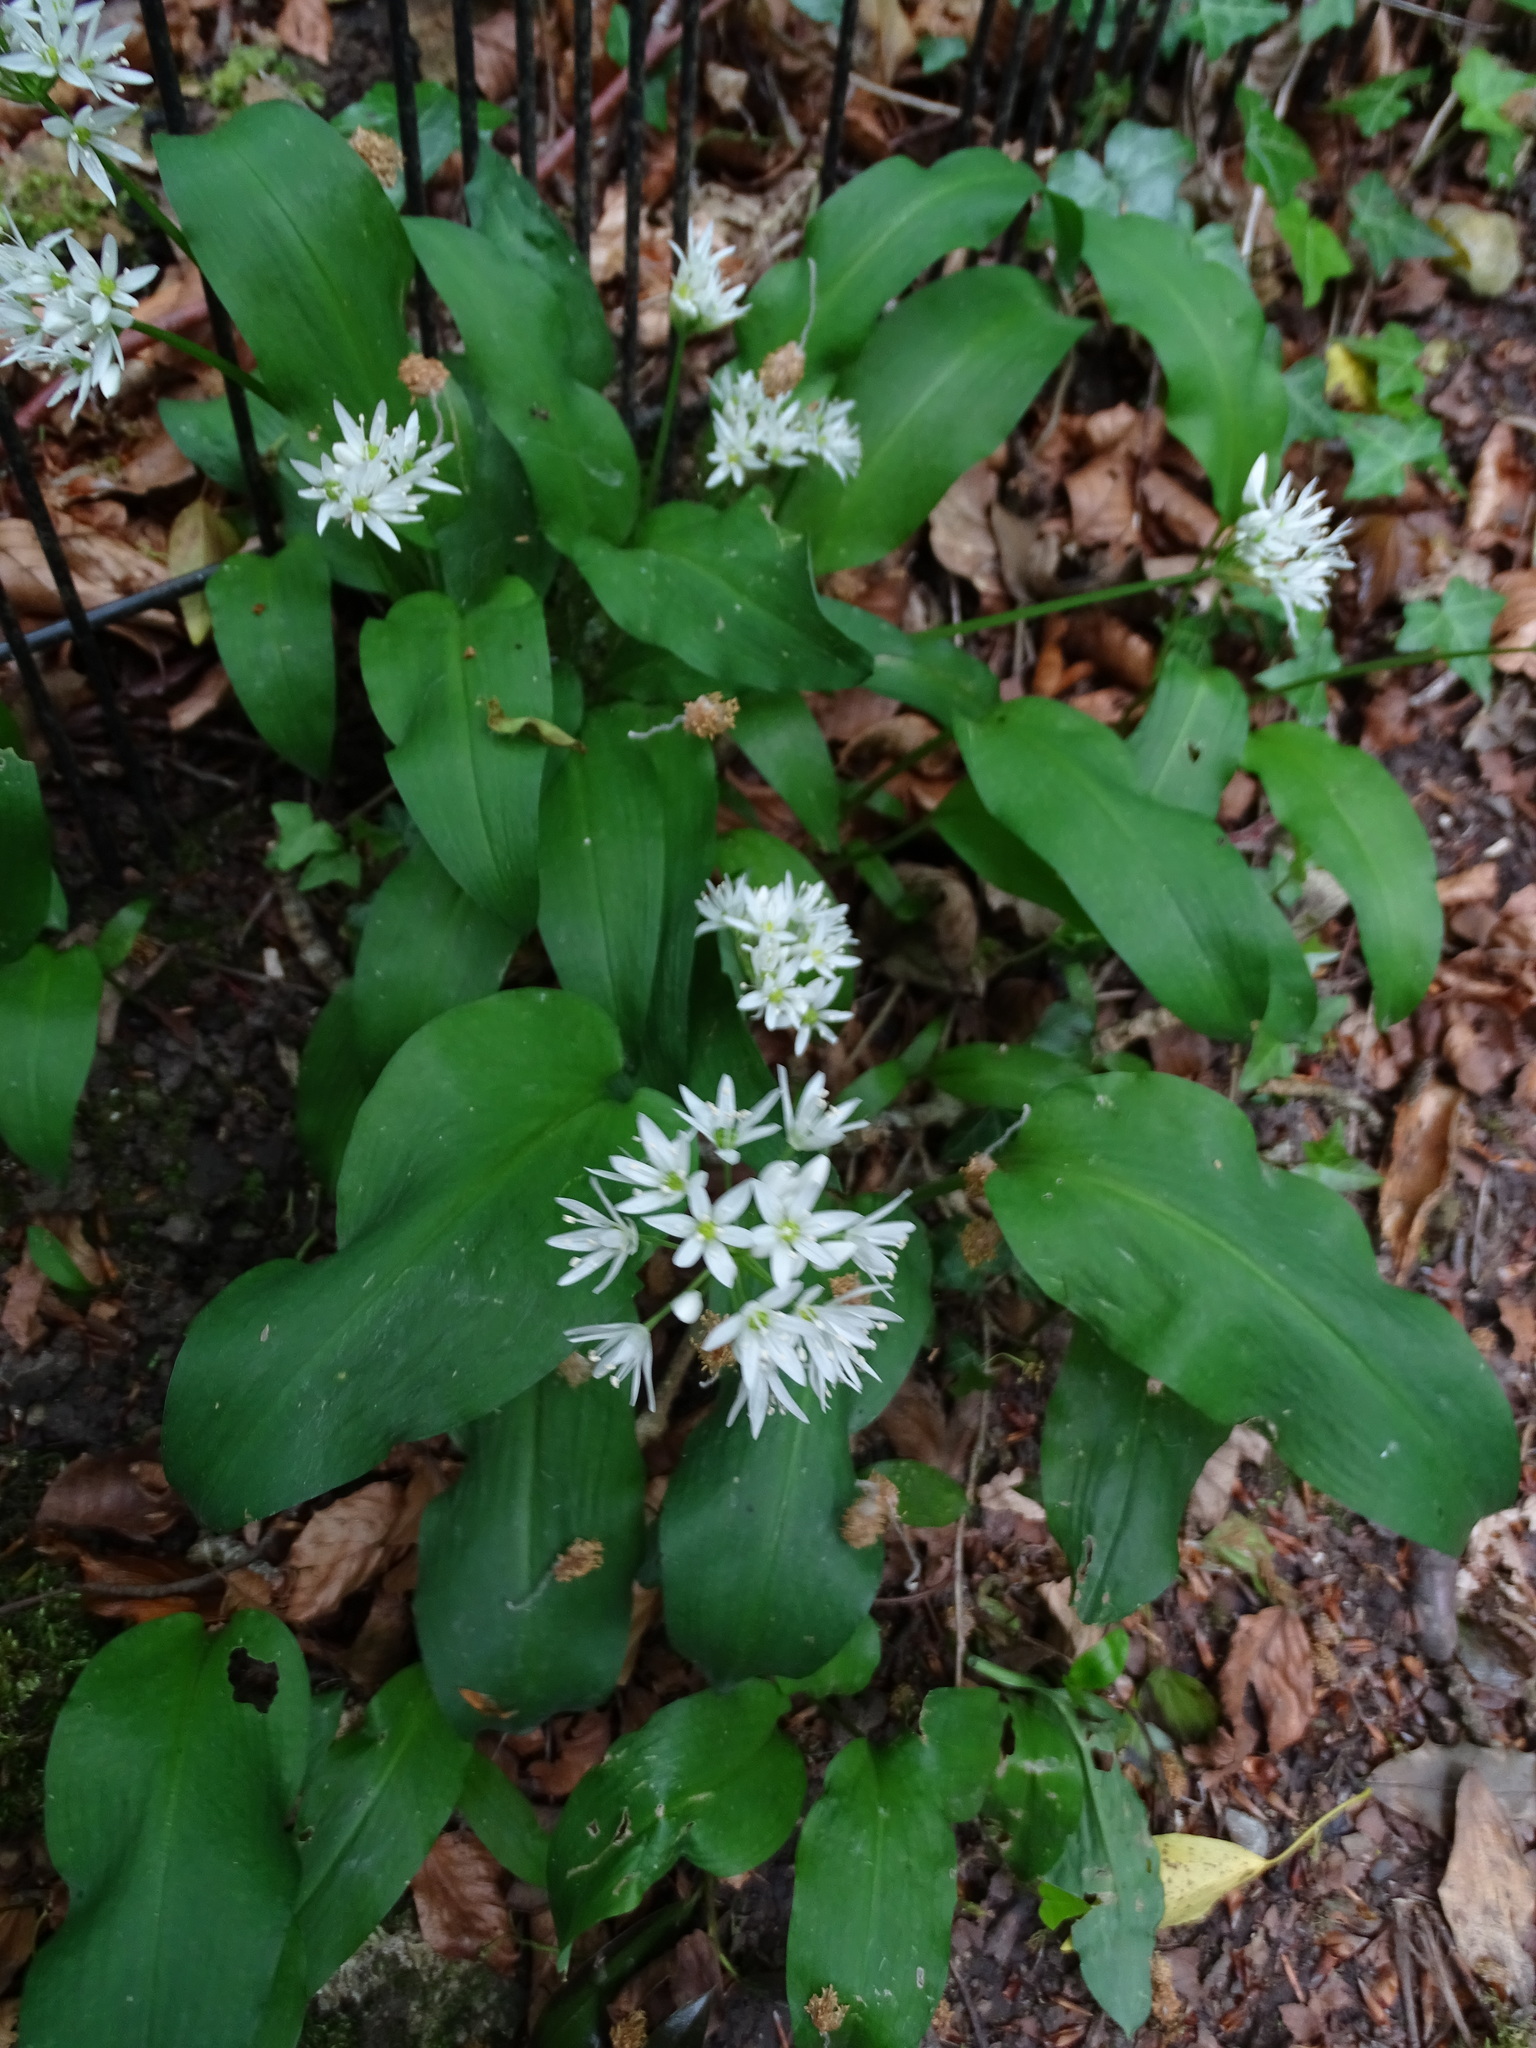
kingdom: Plantae
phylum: Tracheophyta
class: Liliopsida
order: Asparagales
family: Amaryllidaceae
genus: Allium
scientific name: Allium ursinum
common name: Ramsons
